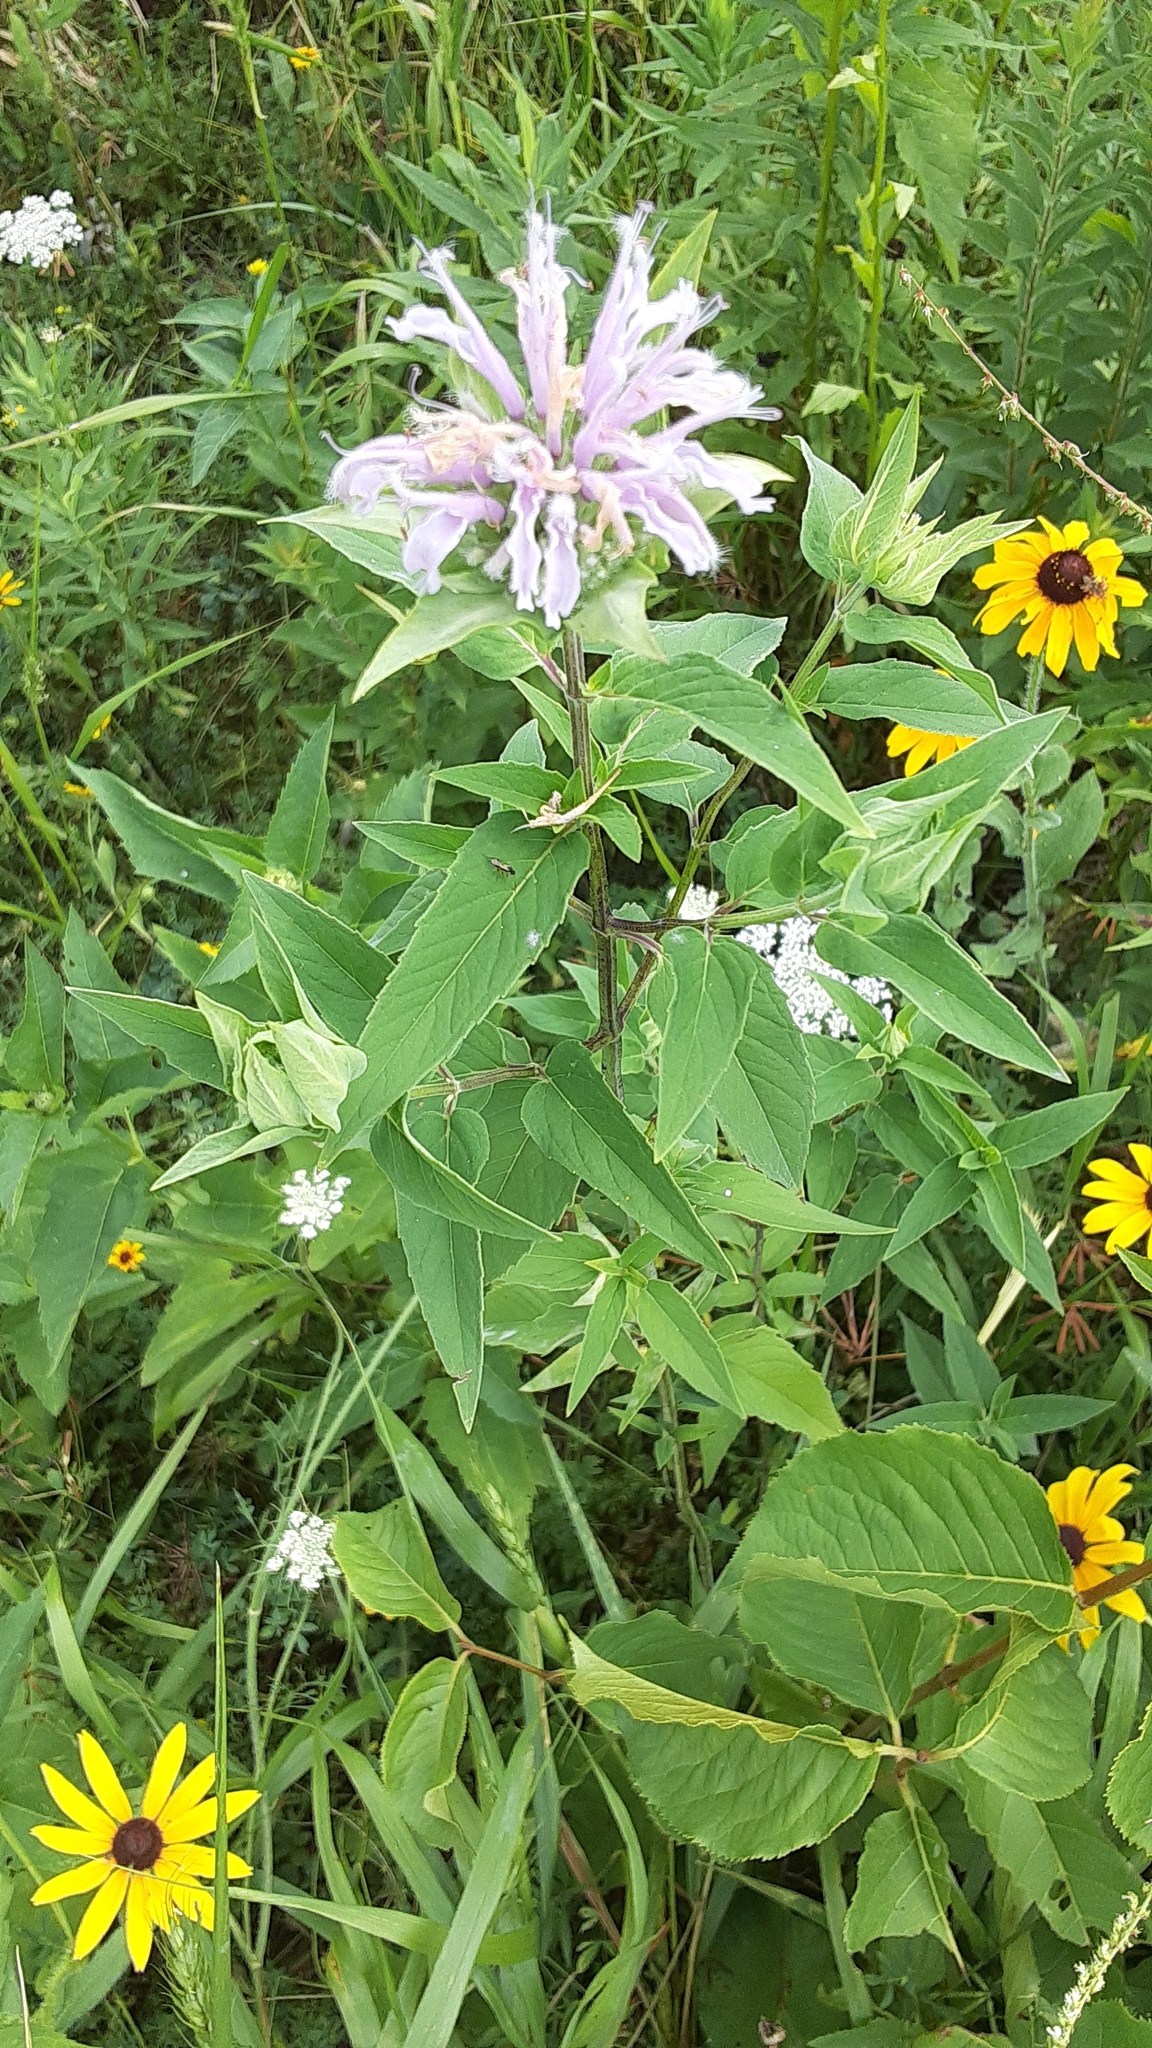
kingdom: Plantae
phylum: Tracheophyta
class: Magnoliopsida
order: Lamiales
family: Lamiaceae
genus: Monarda
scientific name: Monarda fistulosa
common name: Purple beebalm
